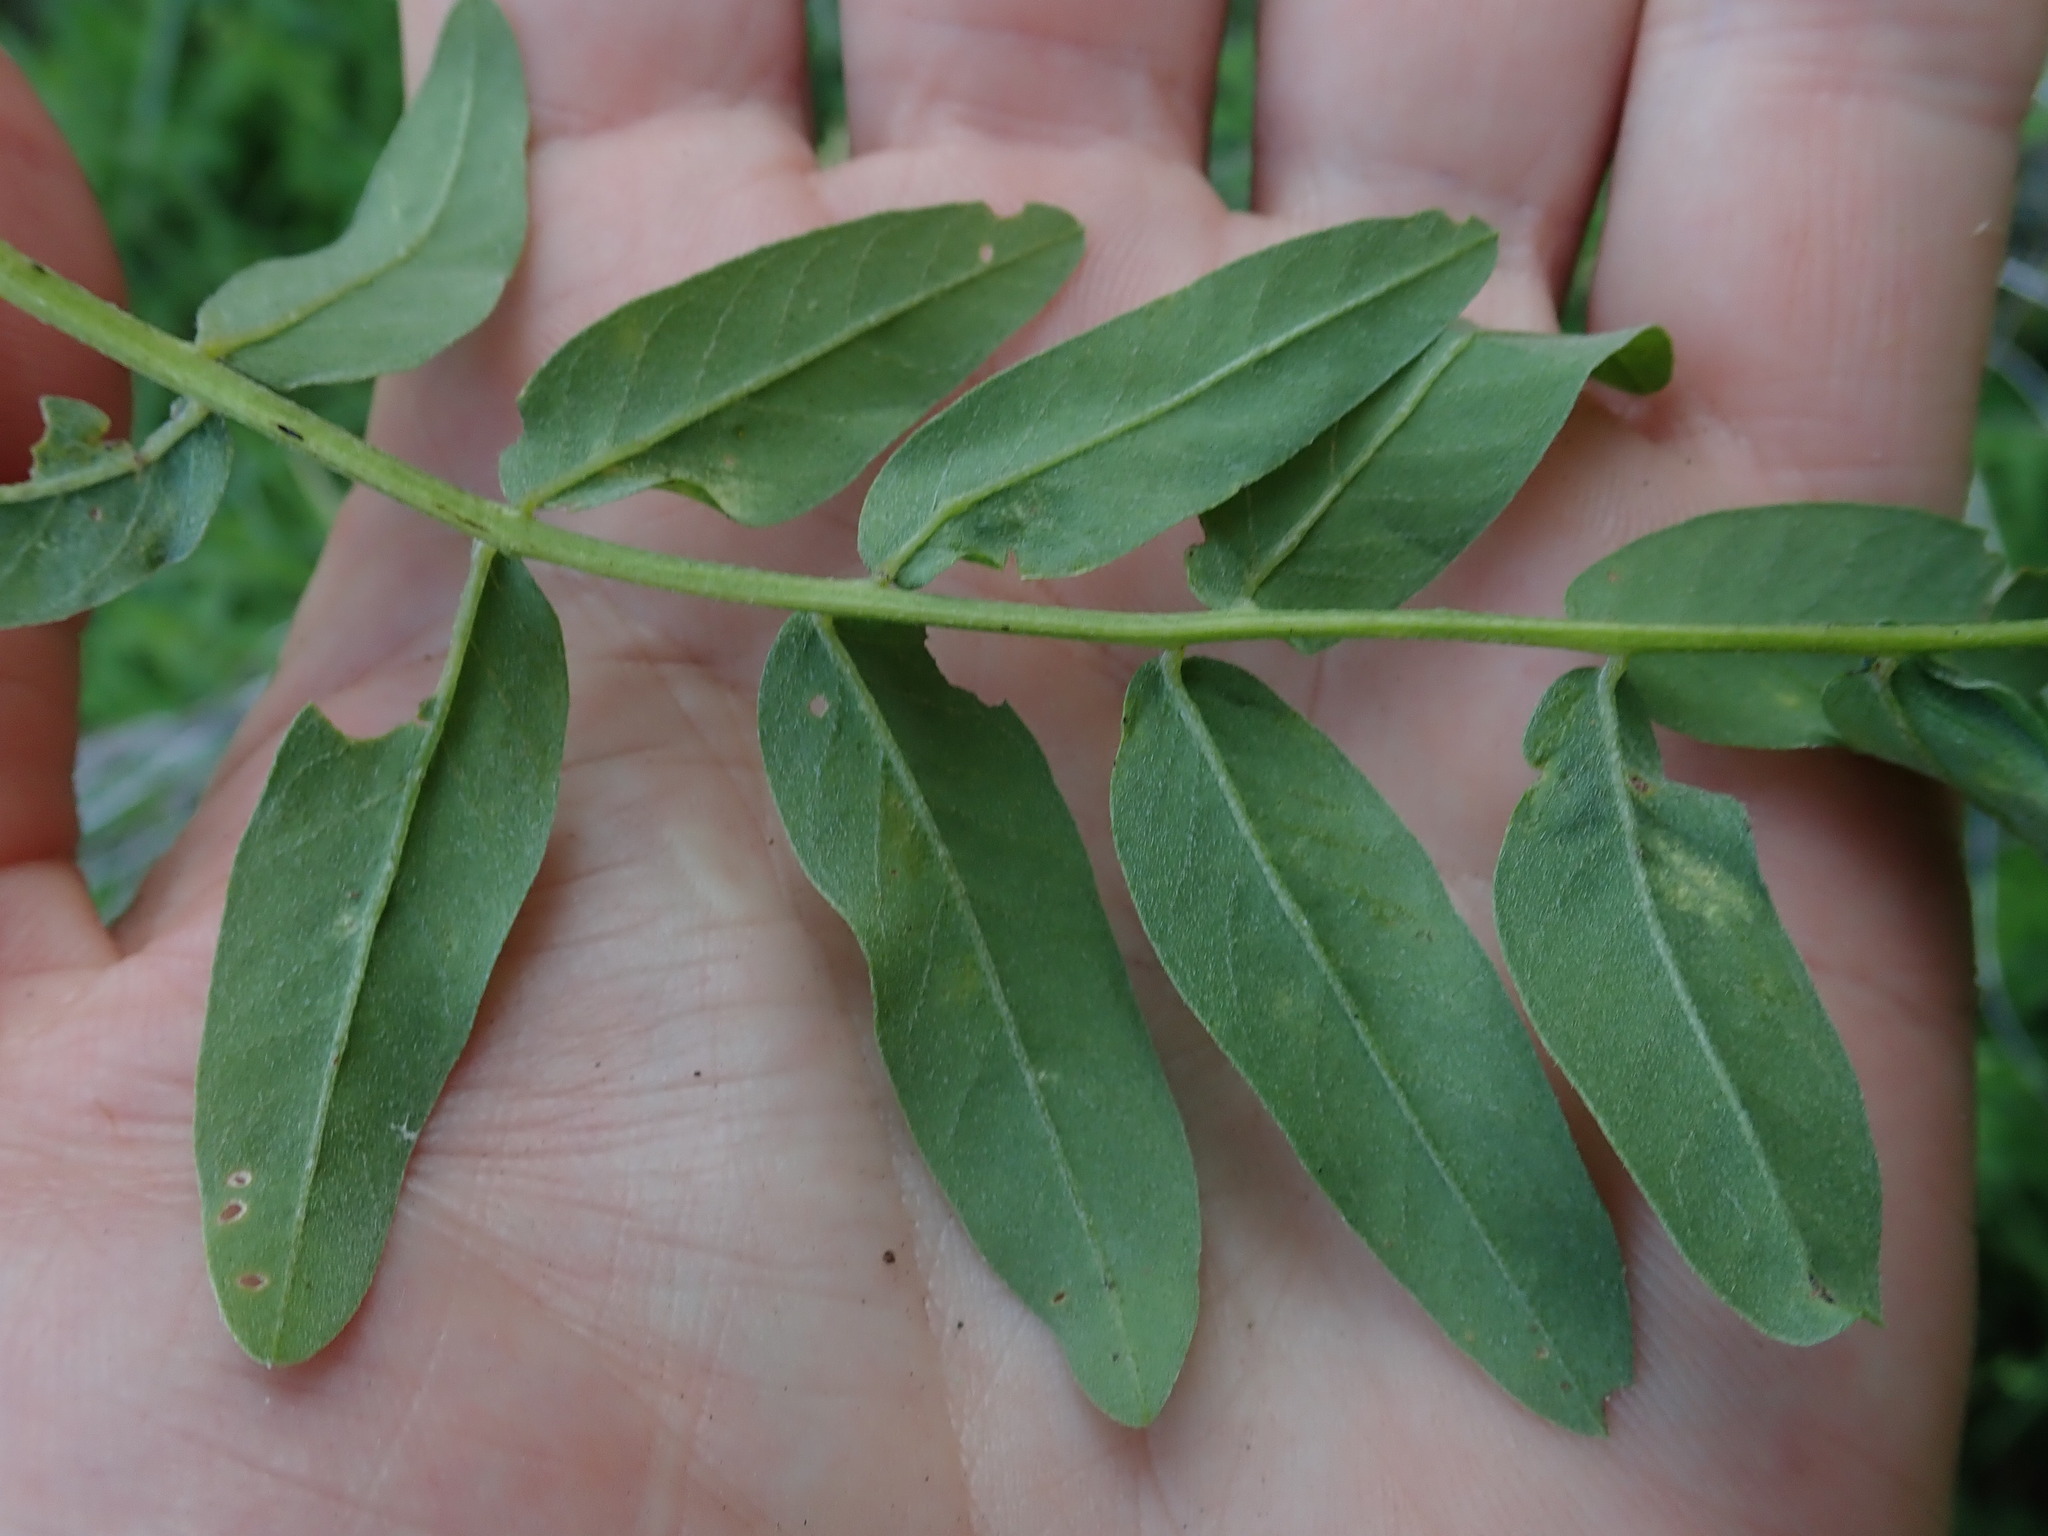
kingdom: Plantae
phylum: Tracheophyta
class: Magnoliopsida
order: Fabales
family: Fabaceae
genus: Astragalus
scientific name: Astragalus canadensis
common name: Canada milk-vetch
